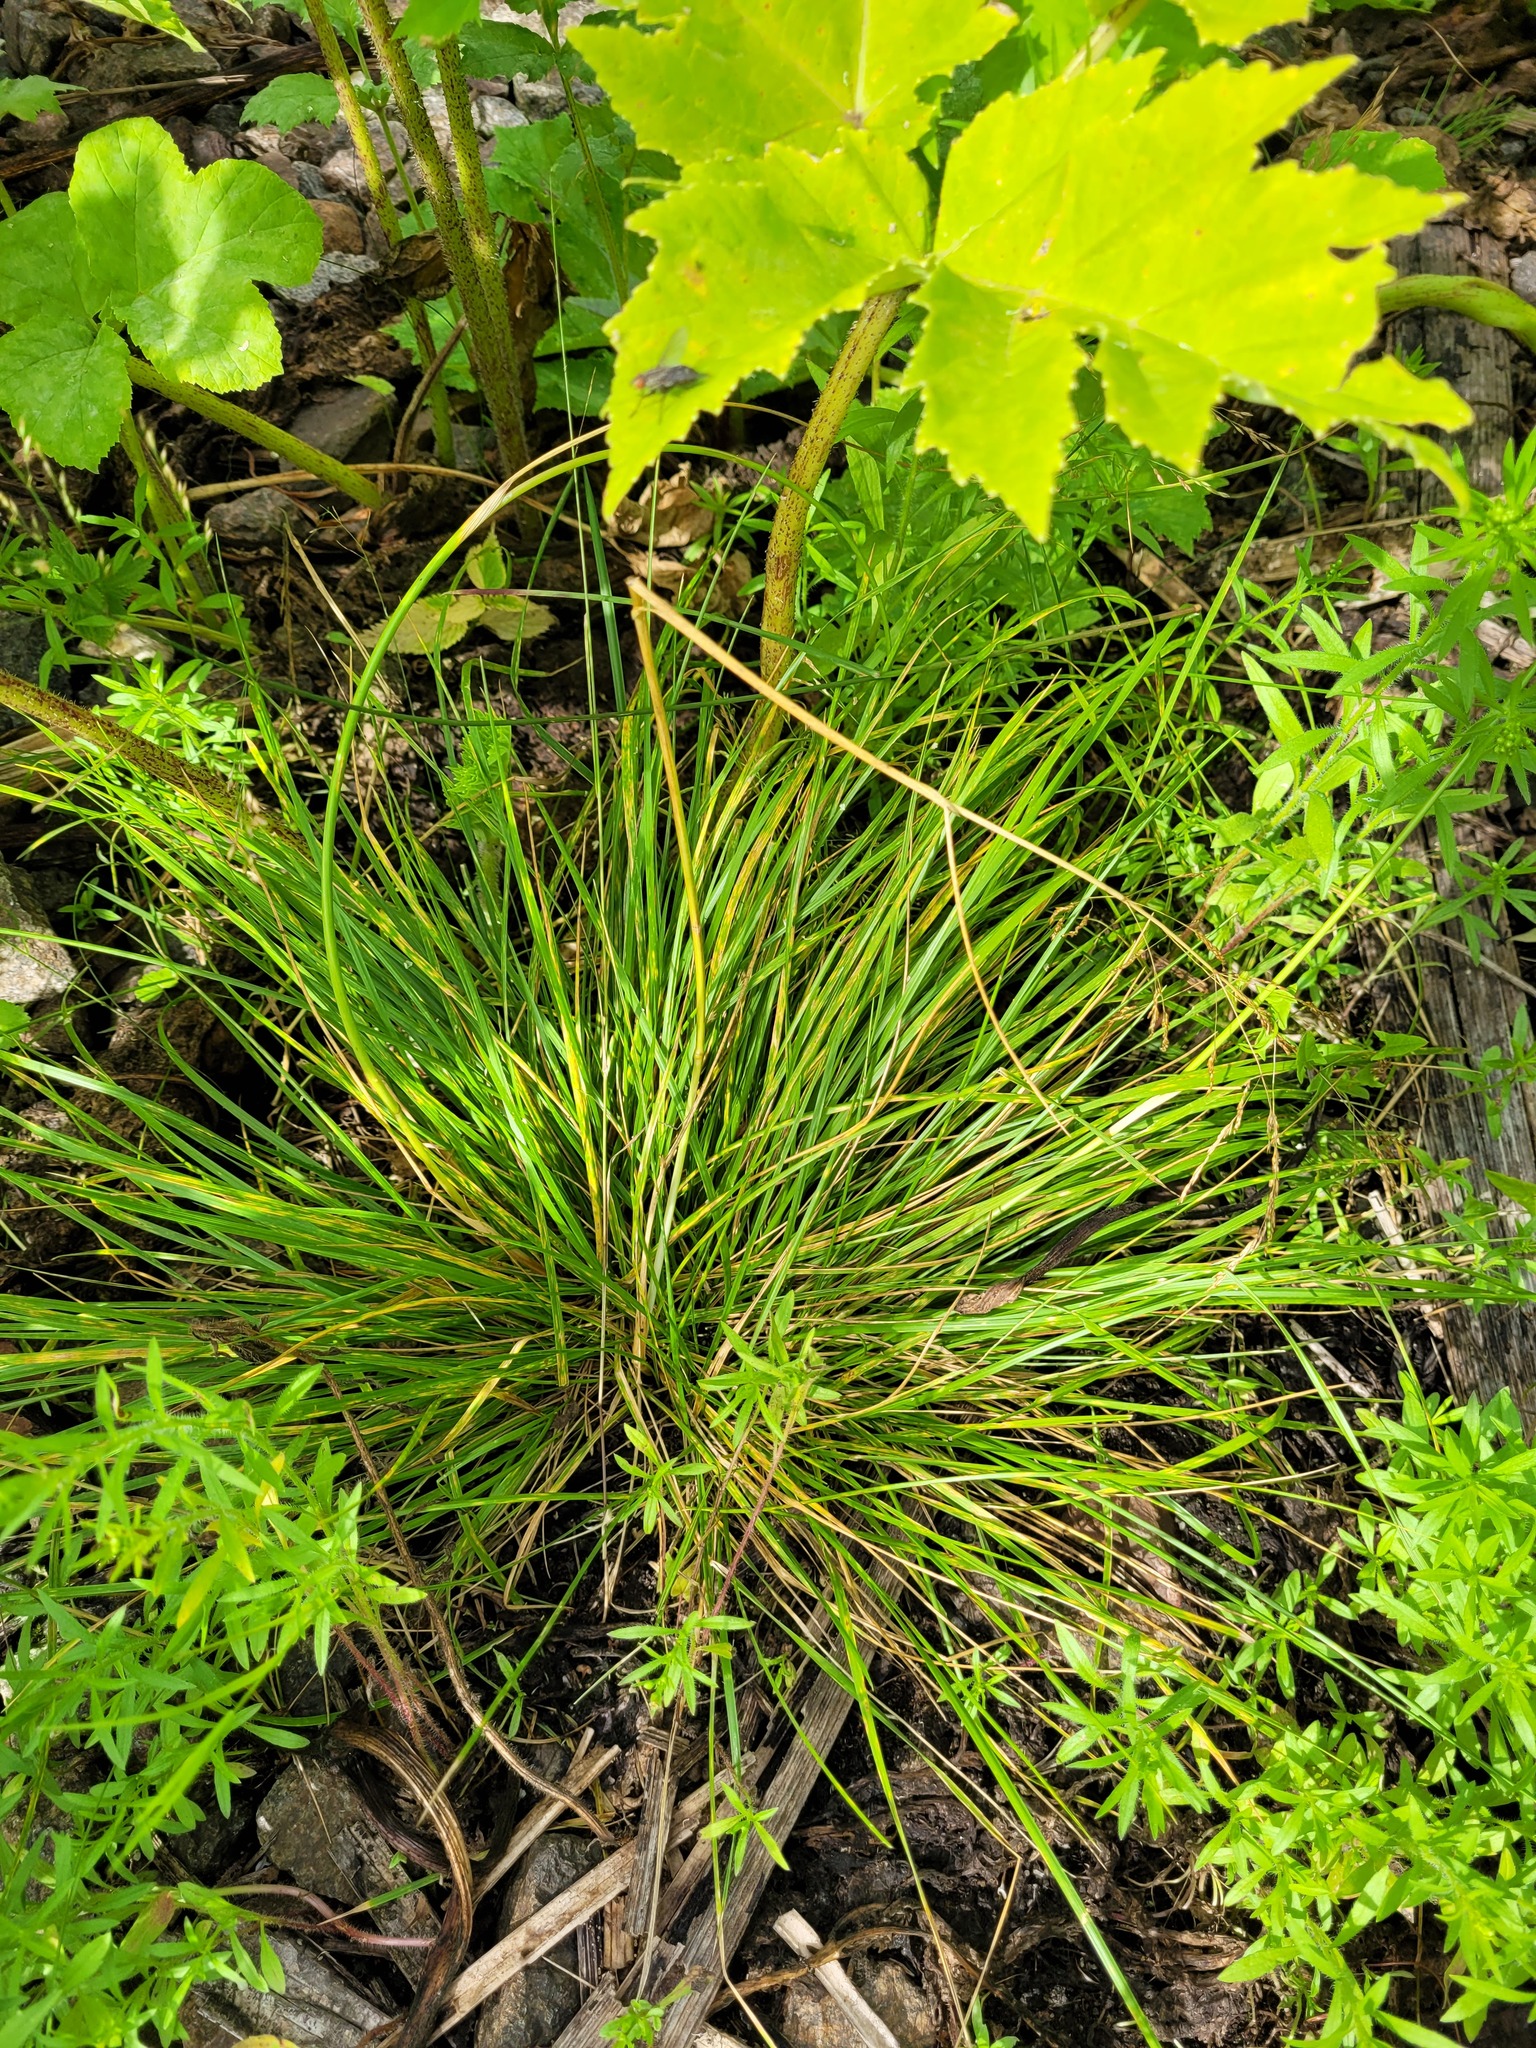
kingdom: Plantae
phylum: Tracheophyta
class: Liliopsida
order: Poales
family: Poaceae
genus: Deschampsia
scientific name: Deschampsia cespitosa
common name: Tufted hair-grass
